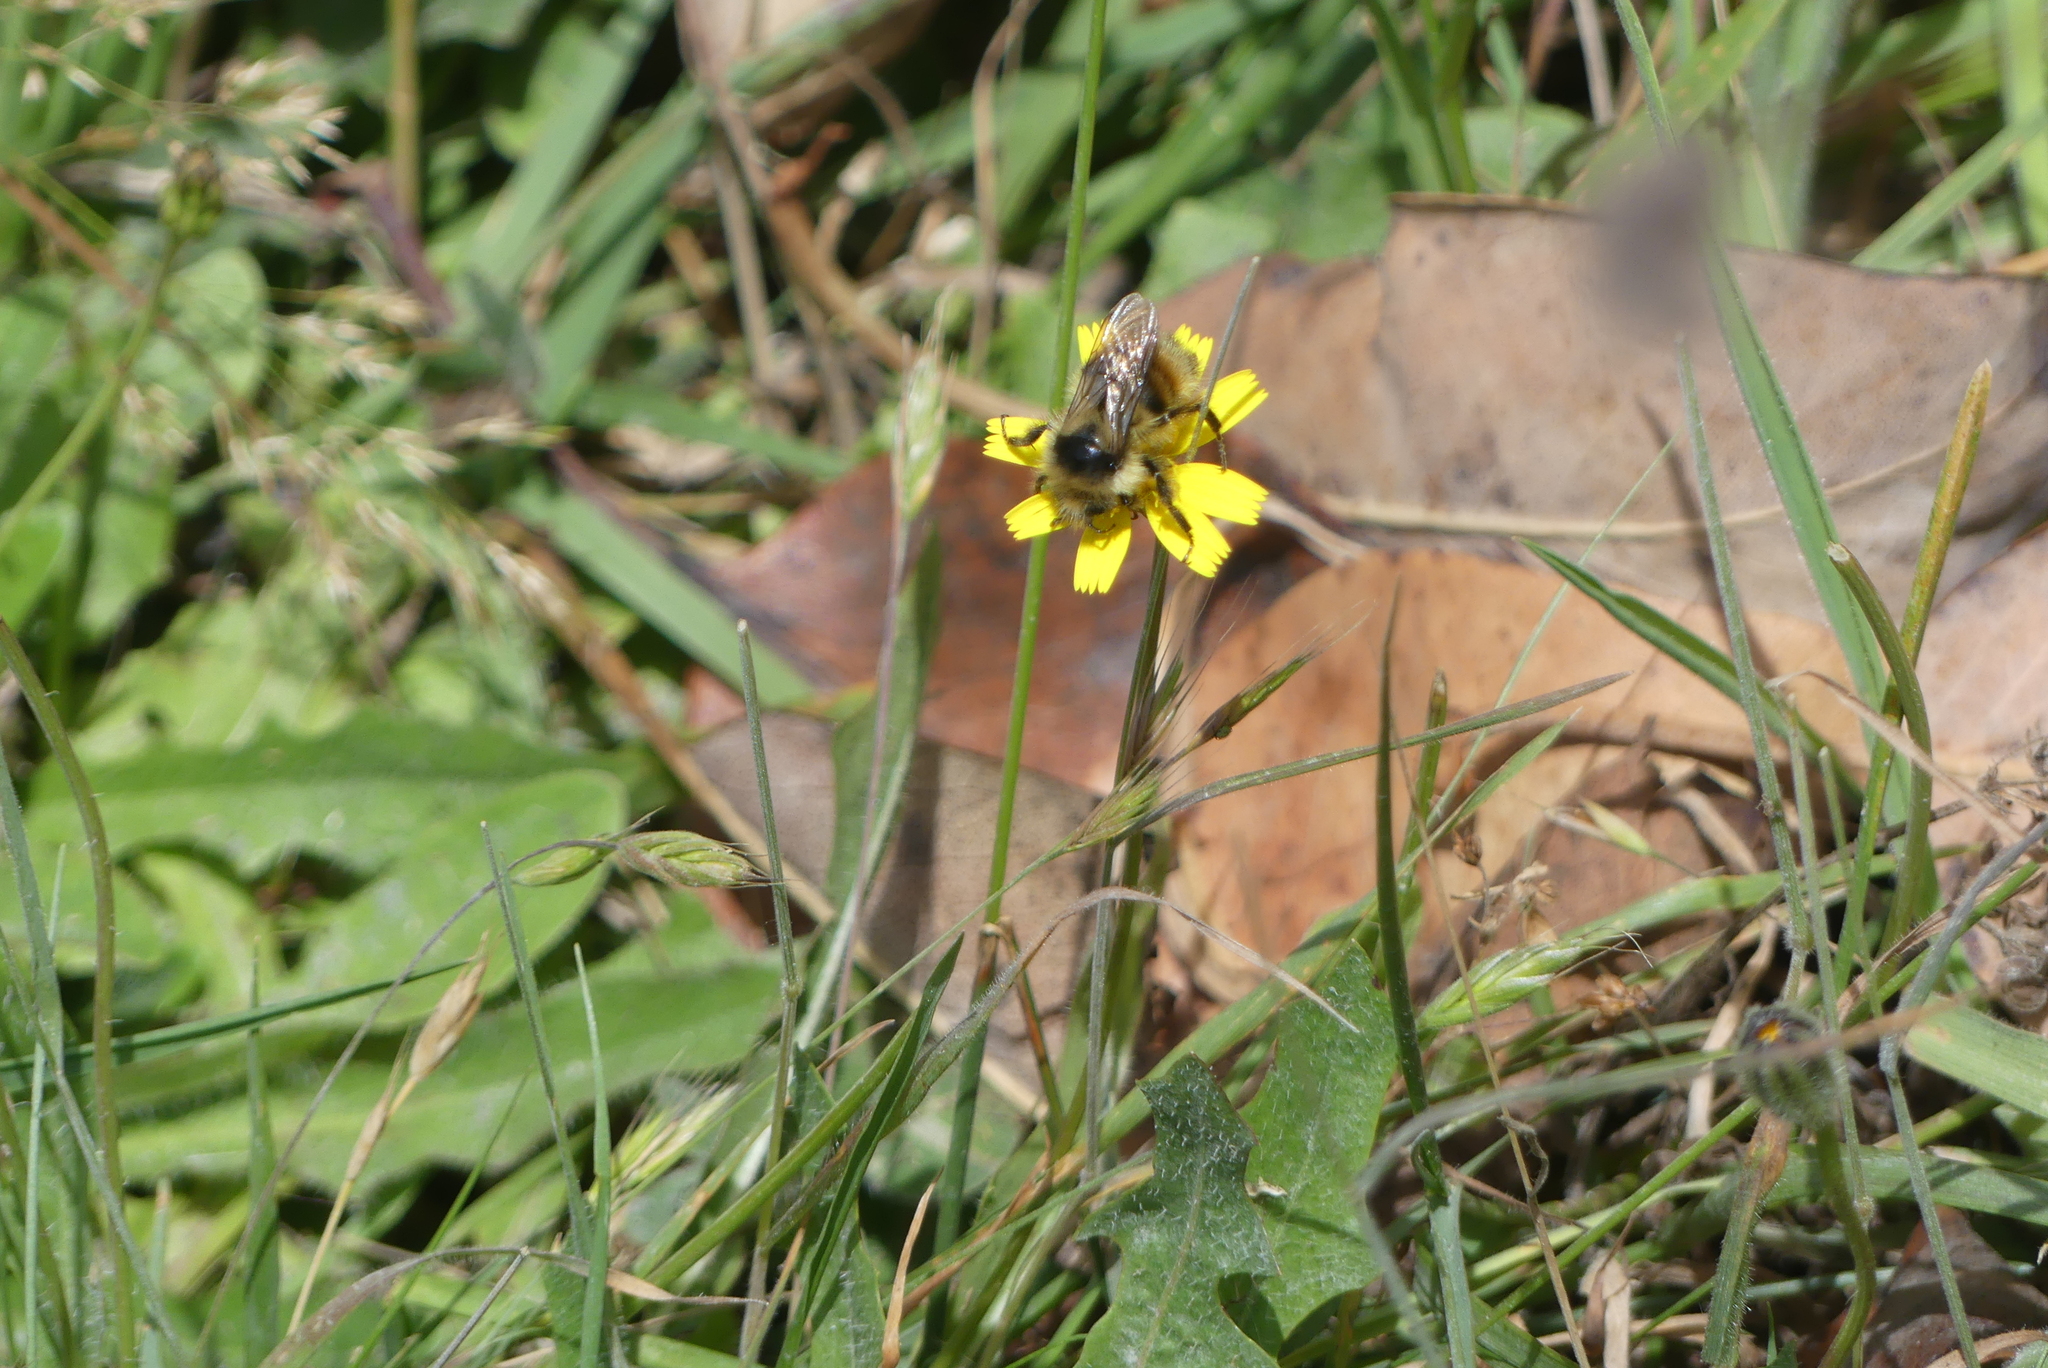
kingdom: Animalia
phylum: Arthropoda
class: Insecta
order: Hymenoptera
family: Apidae
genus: Bombus
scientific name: Bombus vancouverensis
